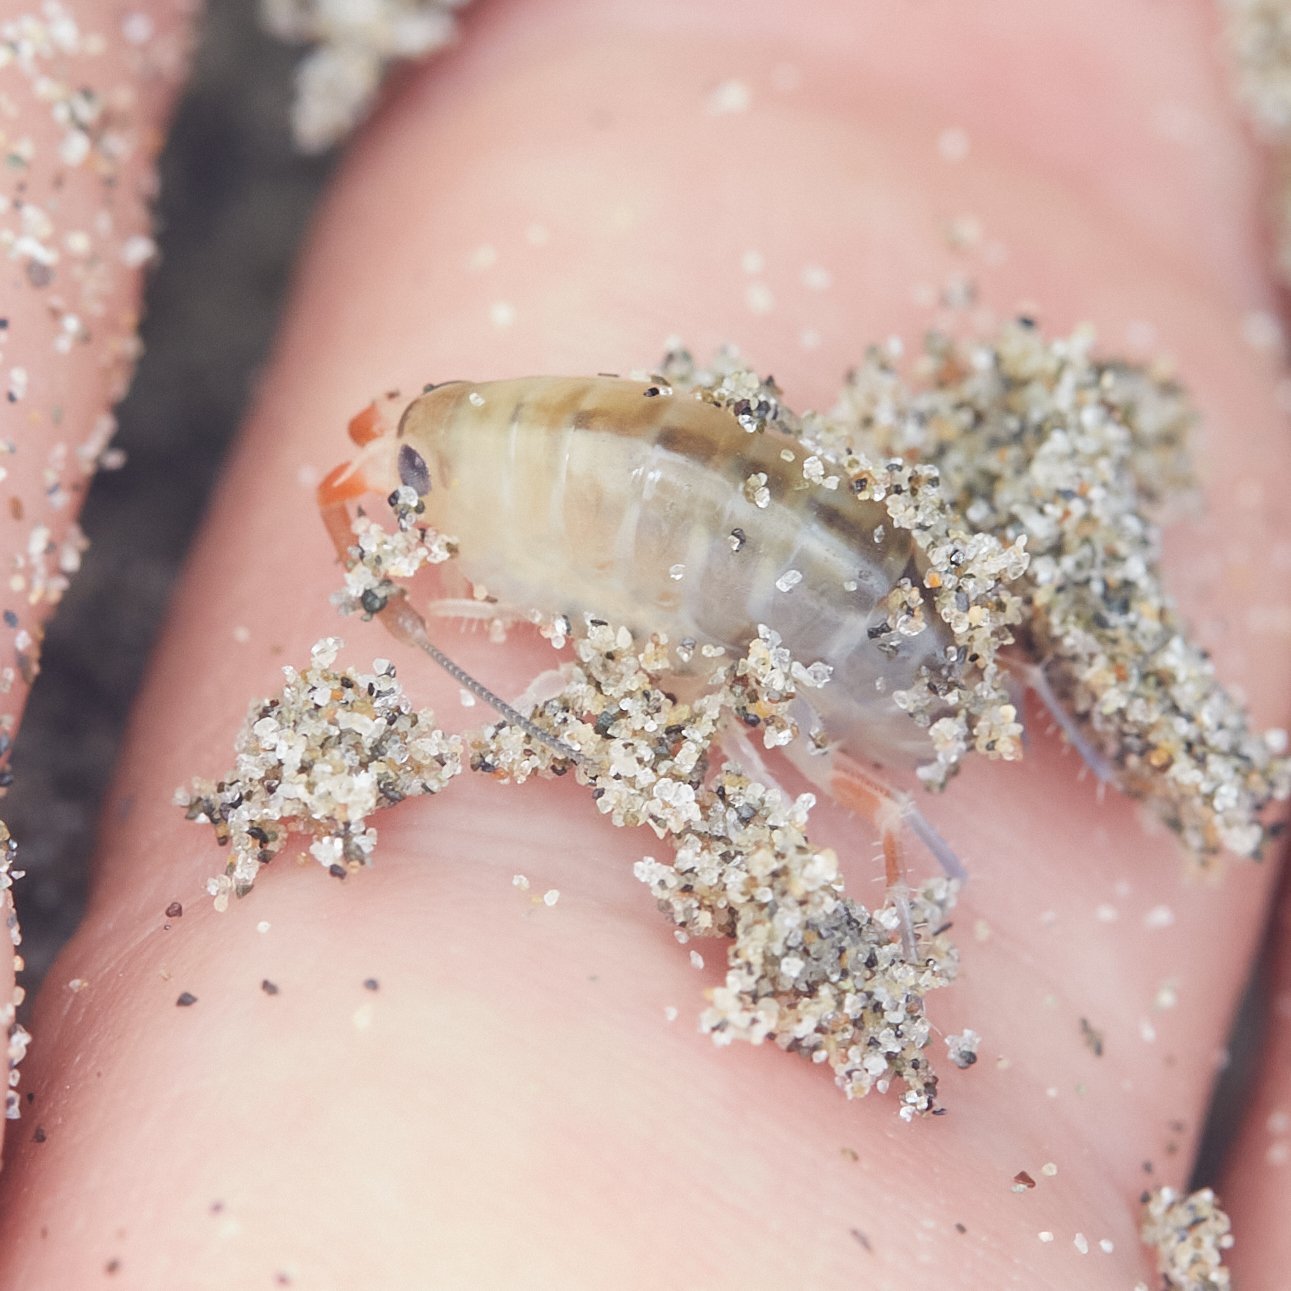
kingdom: Animalia
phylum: Arthropoda
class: Malacostraca
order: Amphipoda
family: Talitridae
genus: Megalorchestia
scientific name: Megalorchestia californiana
